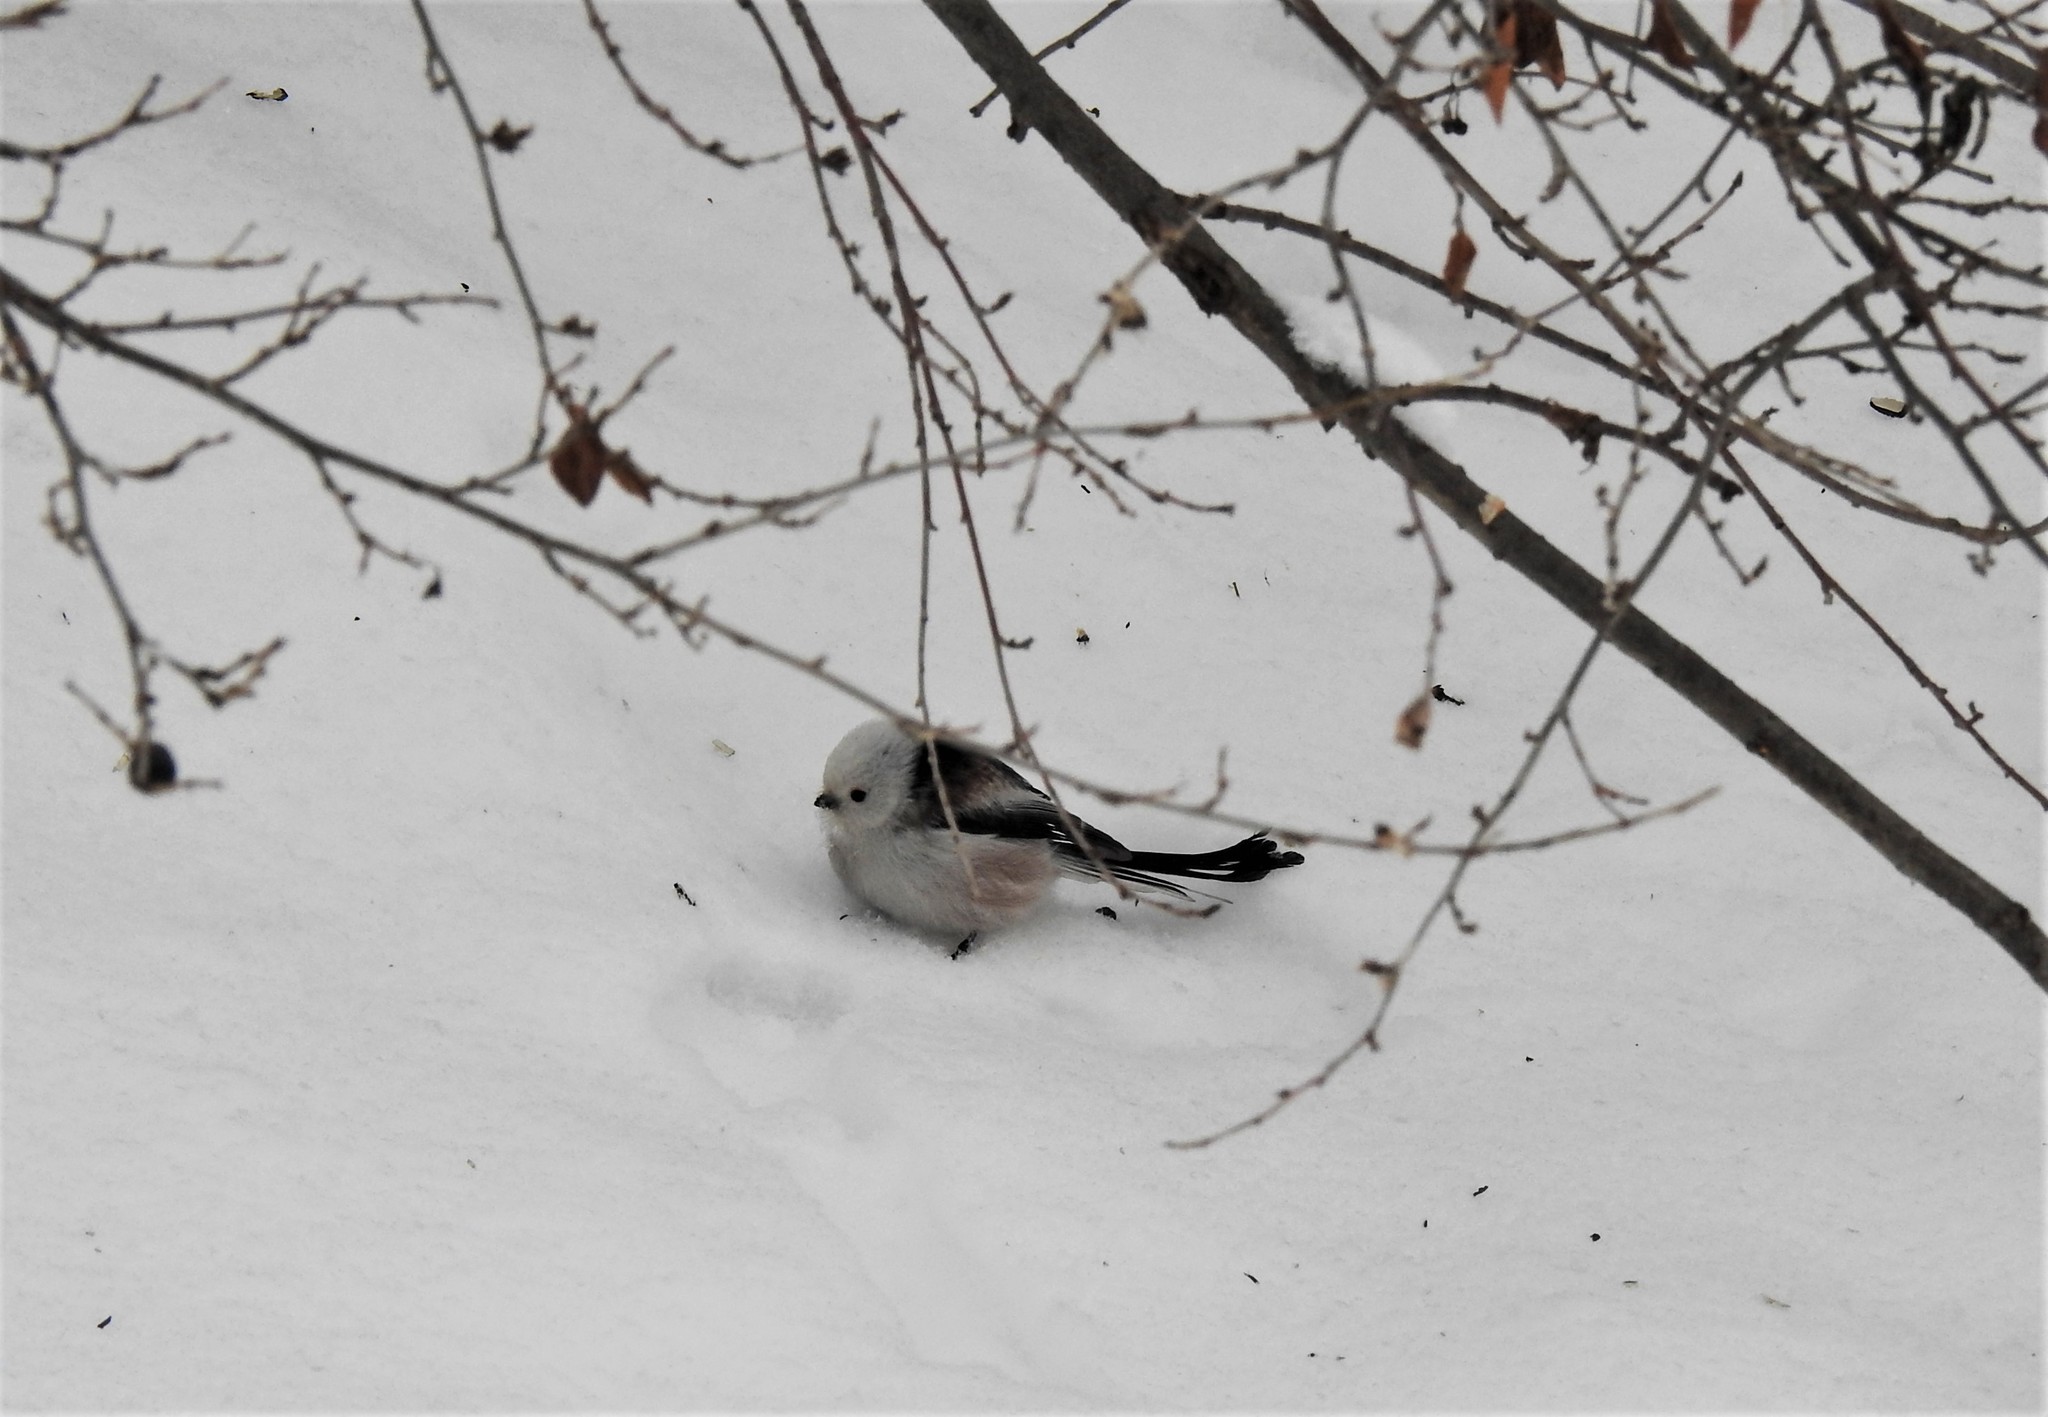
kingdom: Animalia
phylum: Chordata
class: Aves
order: Passeriformes
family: Aegithalidae
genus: Aegithalos
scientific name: Aegithalos caudatus
